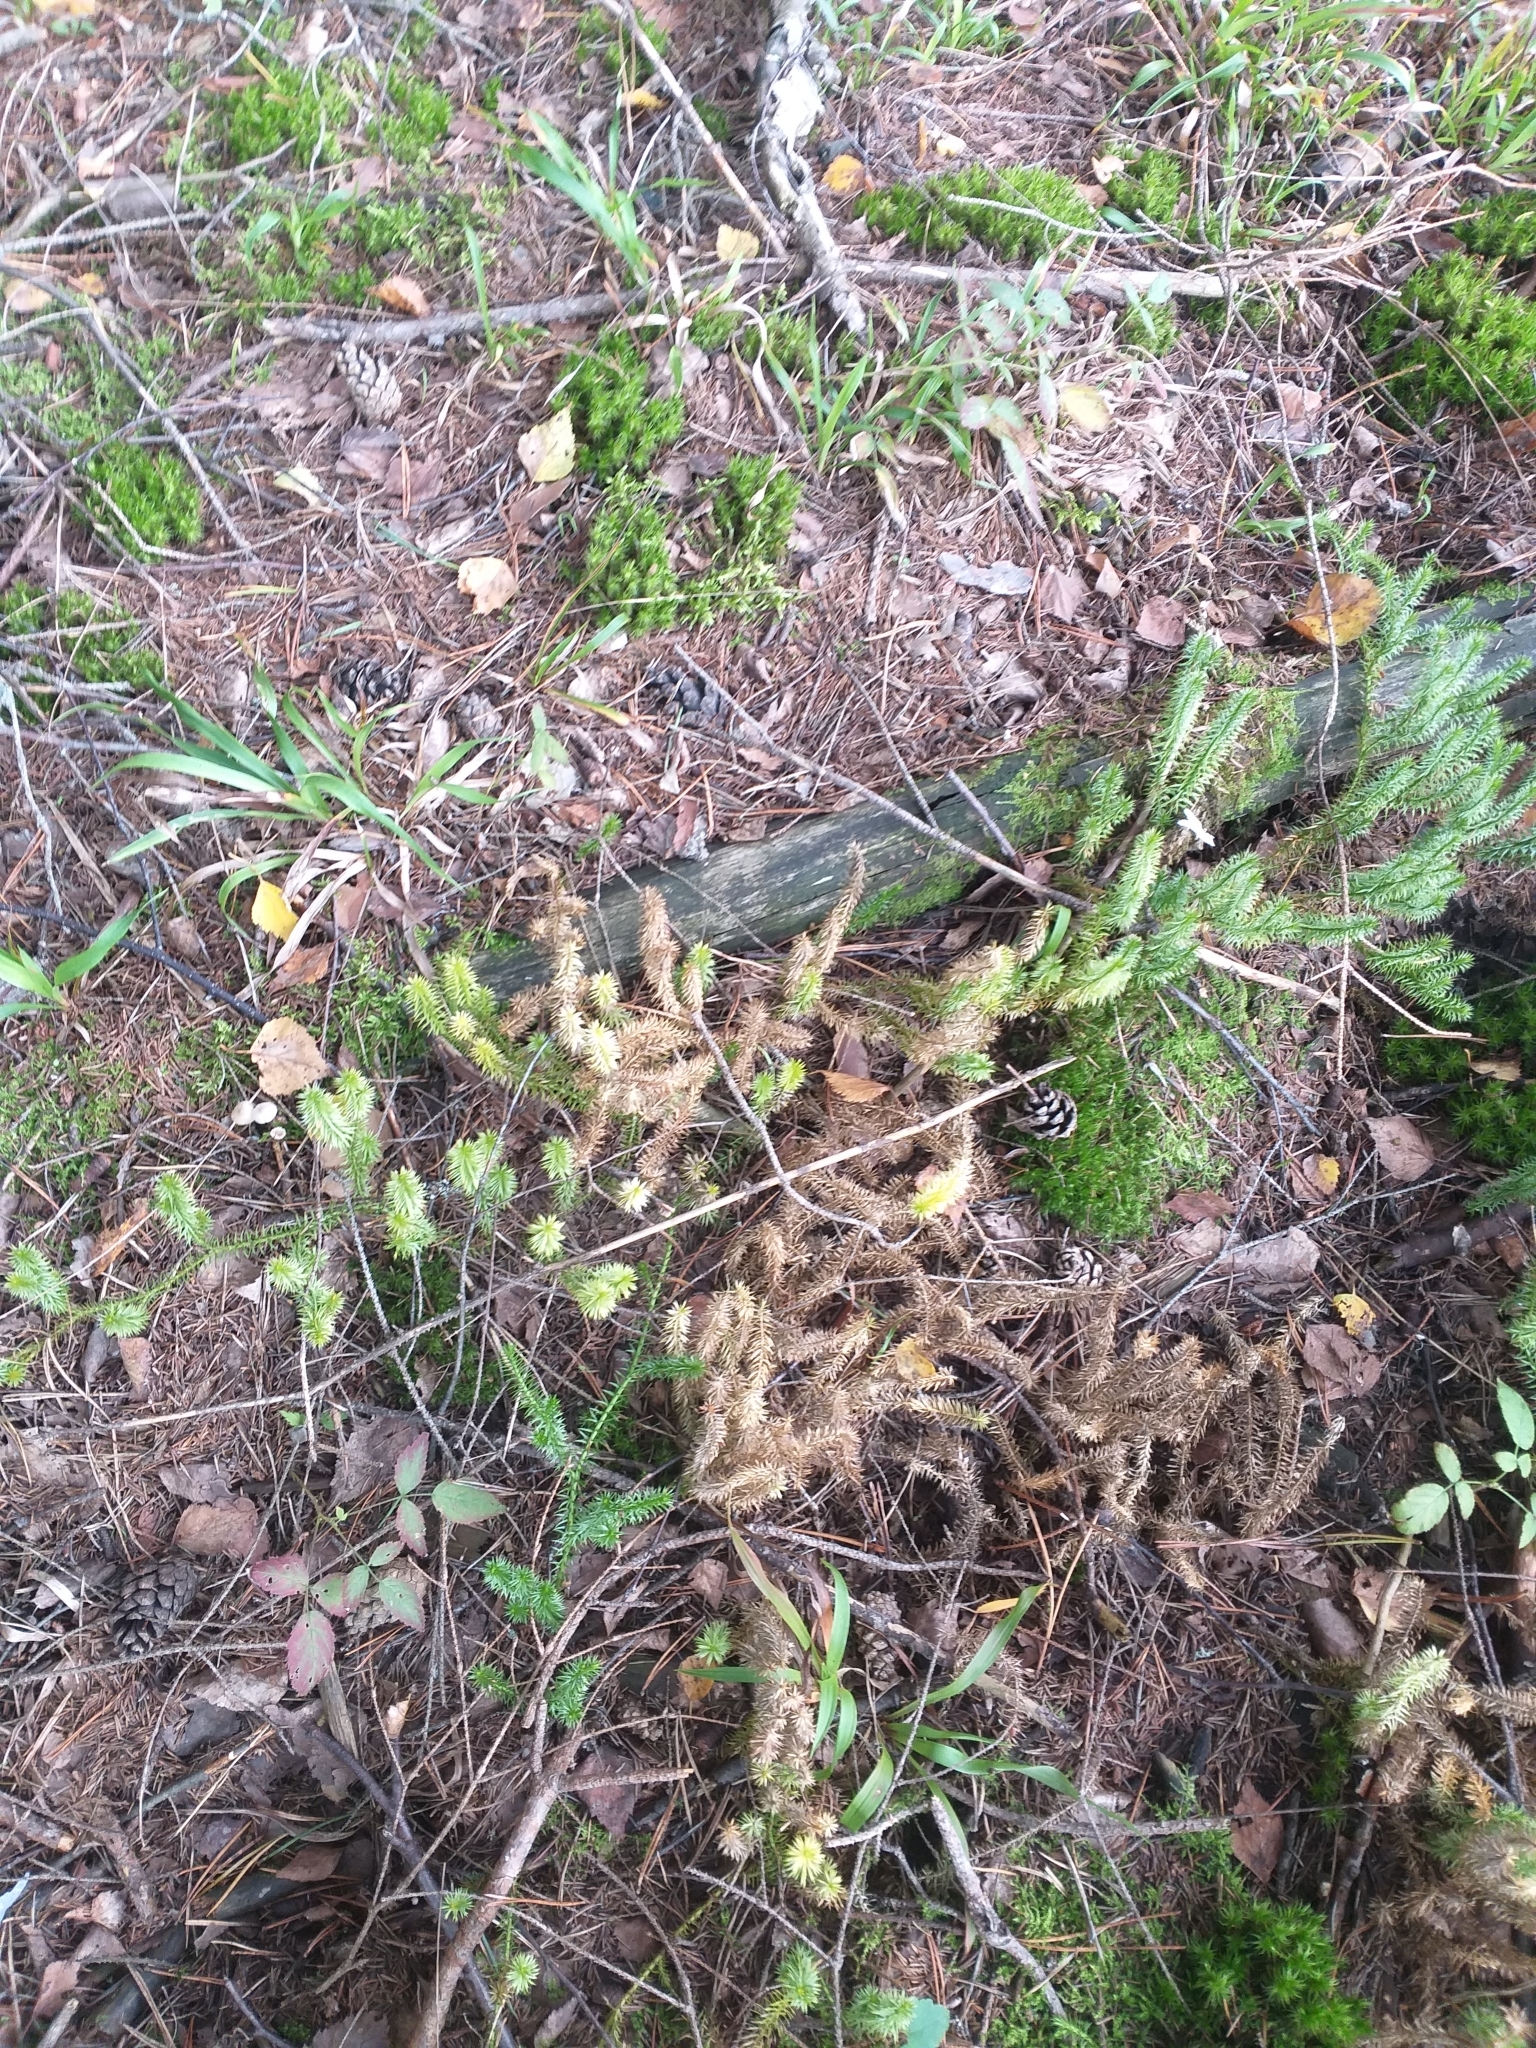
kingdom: Plantae
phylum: Tracheophyta
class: Lycopodiopsida
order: Lycopodiales
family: Lycopodiaceae
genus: Spinulum
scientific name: Spinulum annotinum
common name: Interrupted club-moss
